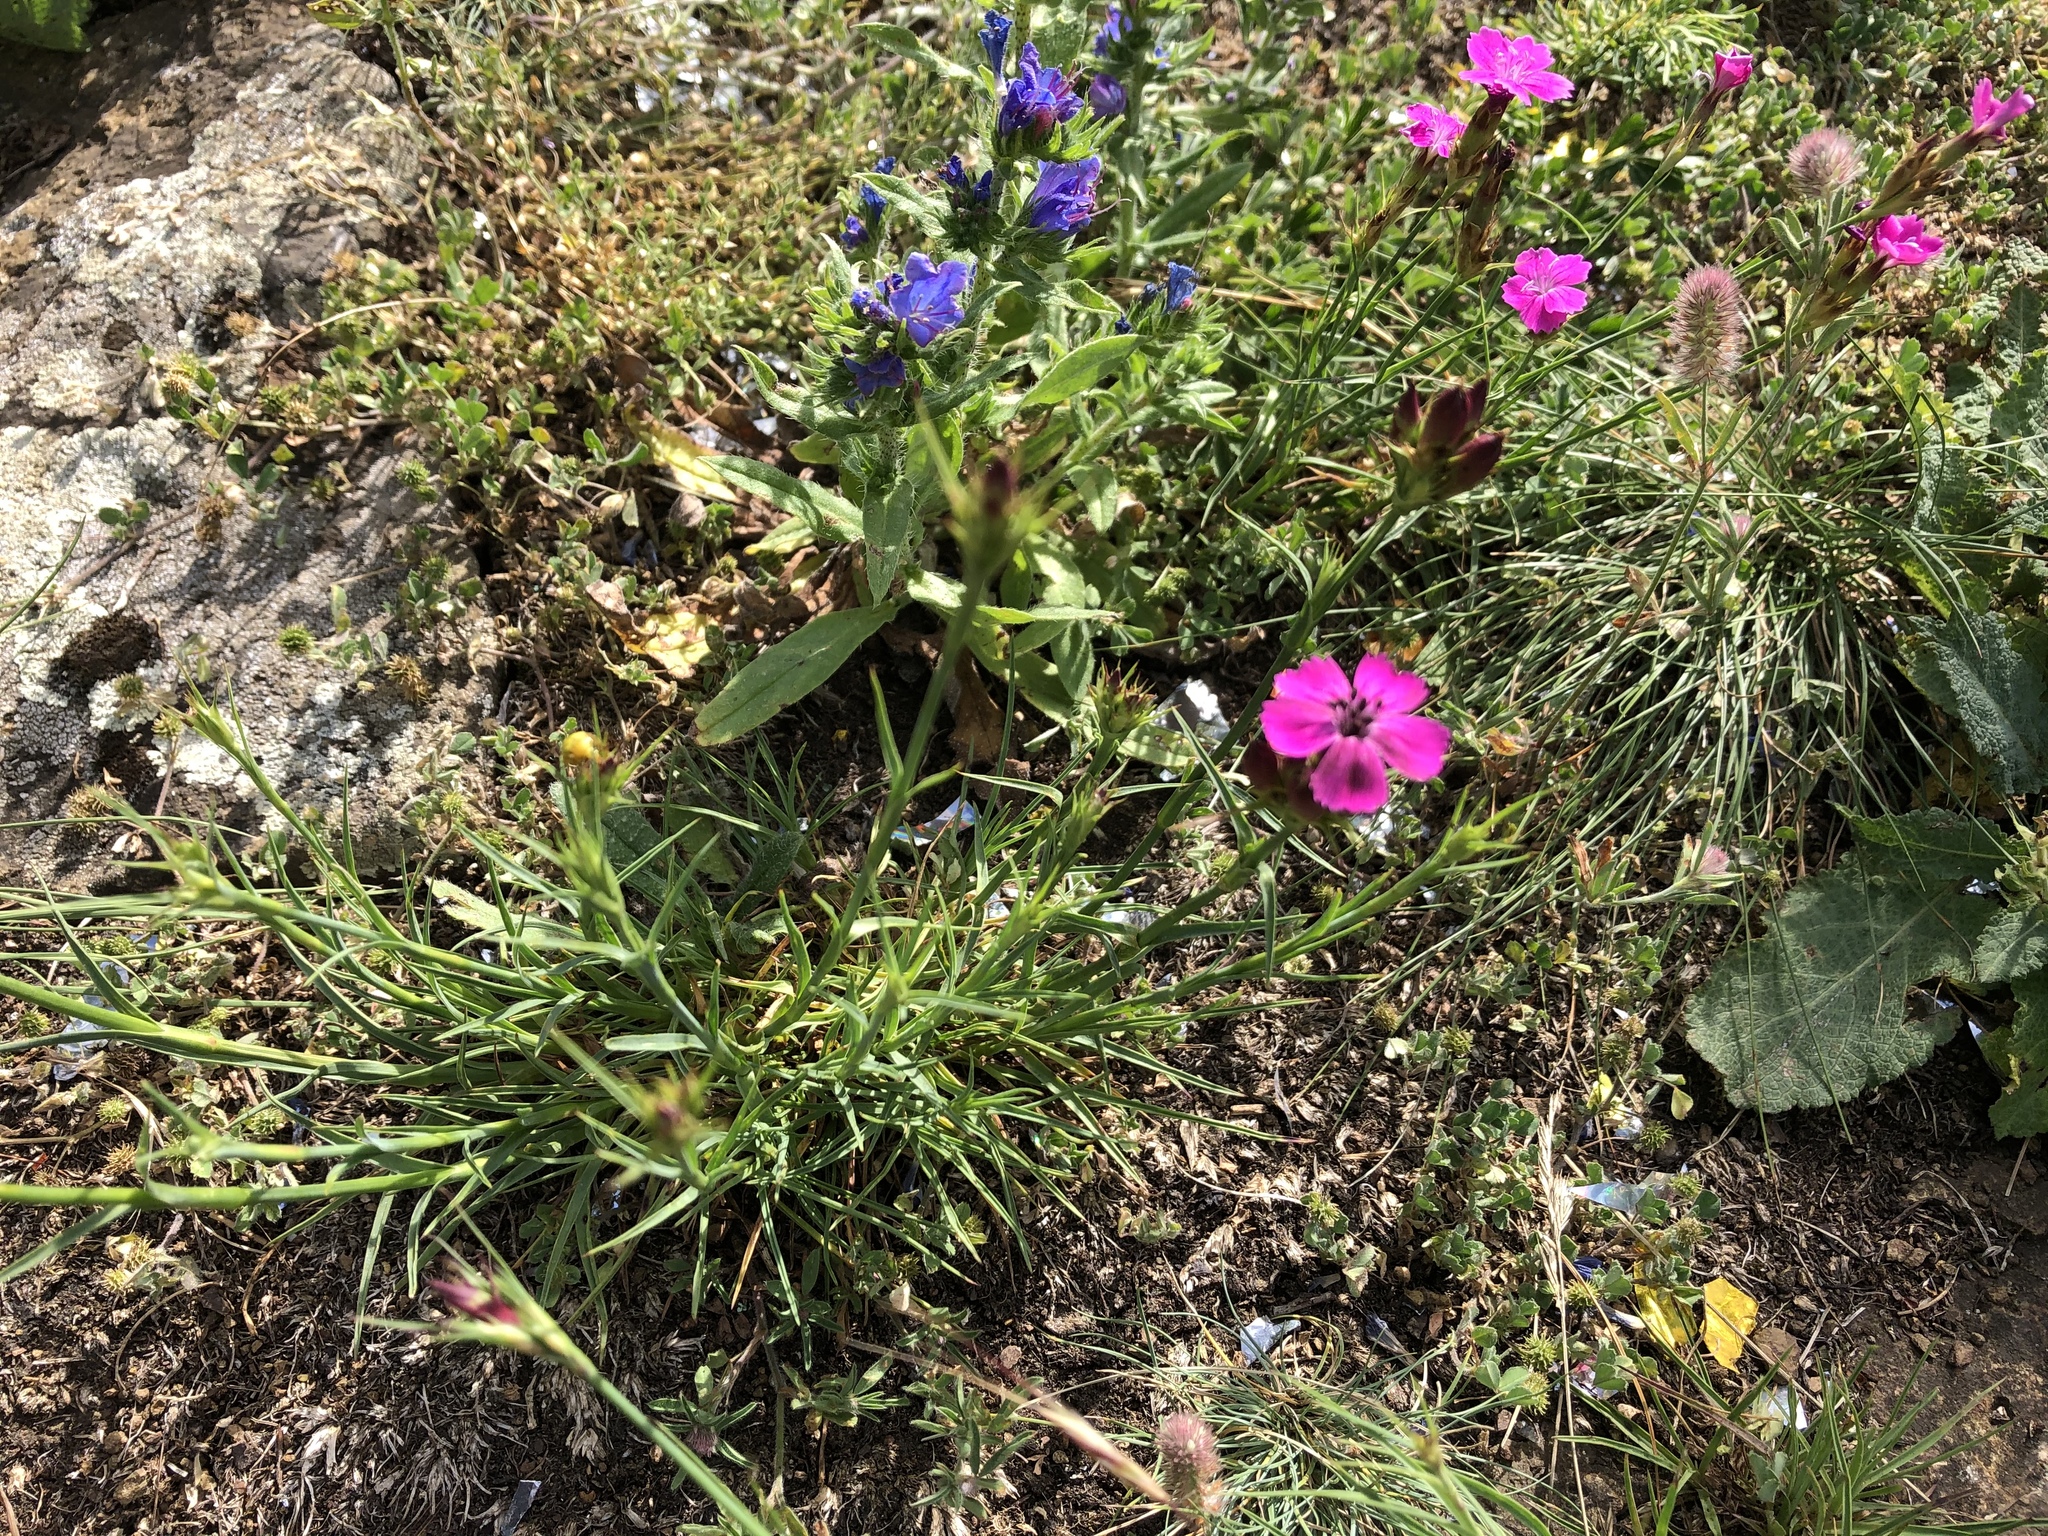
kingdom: Plantae
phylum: Tracheophyta
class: Magnoliopsida
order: Caryophyllales
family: Caryophyllaceae
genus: Dianthus
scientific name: Dianthus carthusianorum
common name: Carthusian pink
